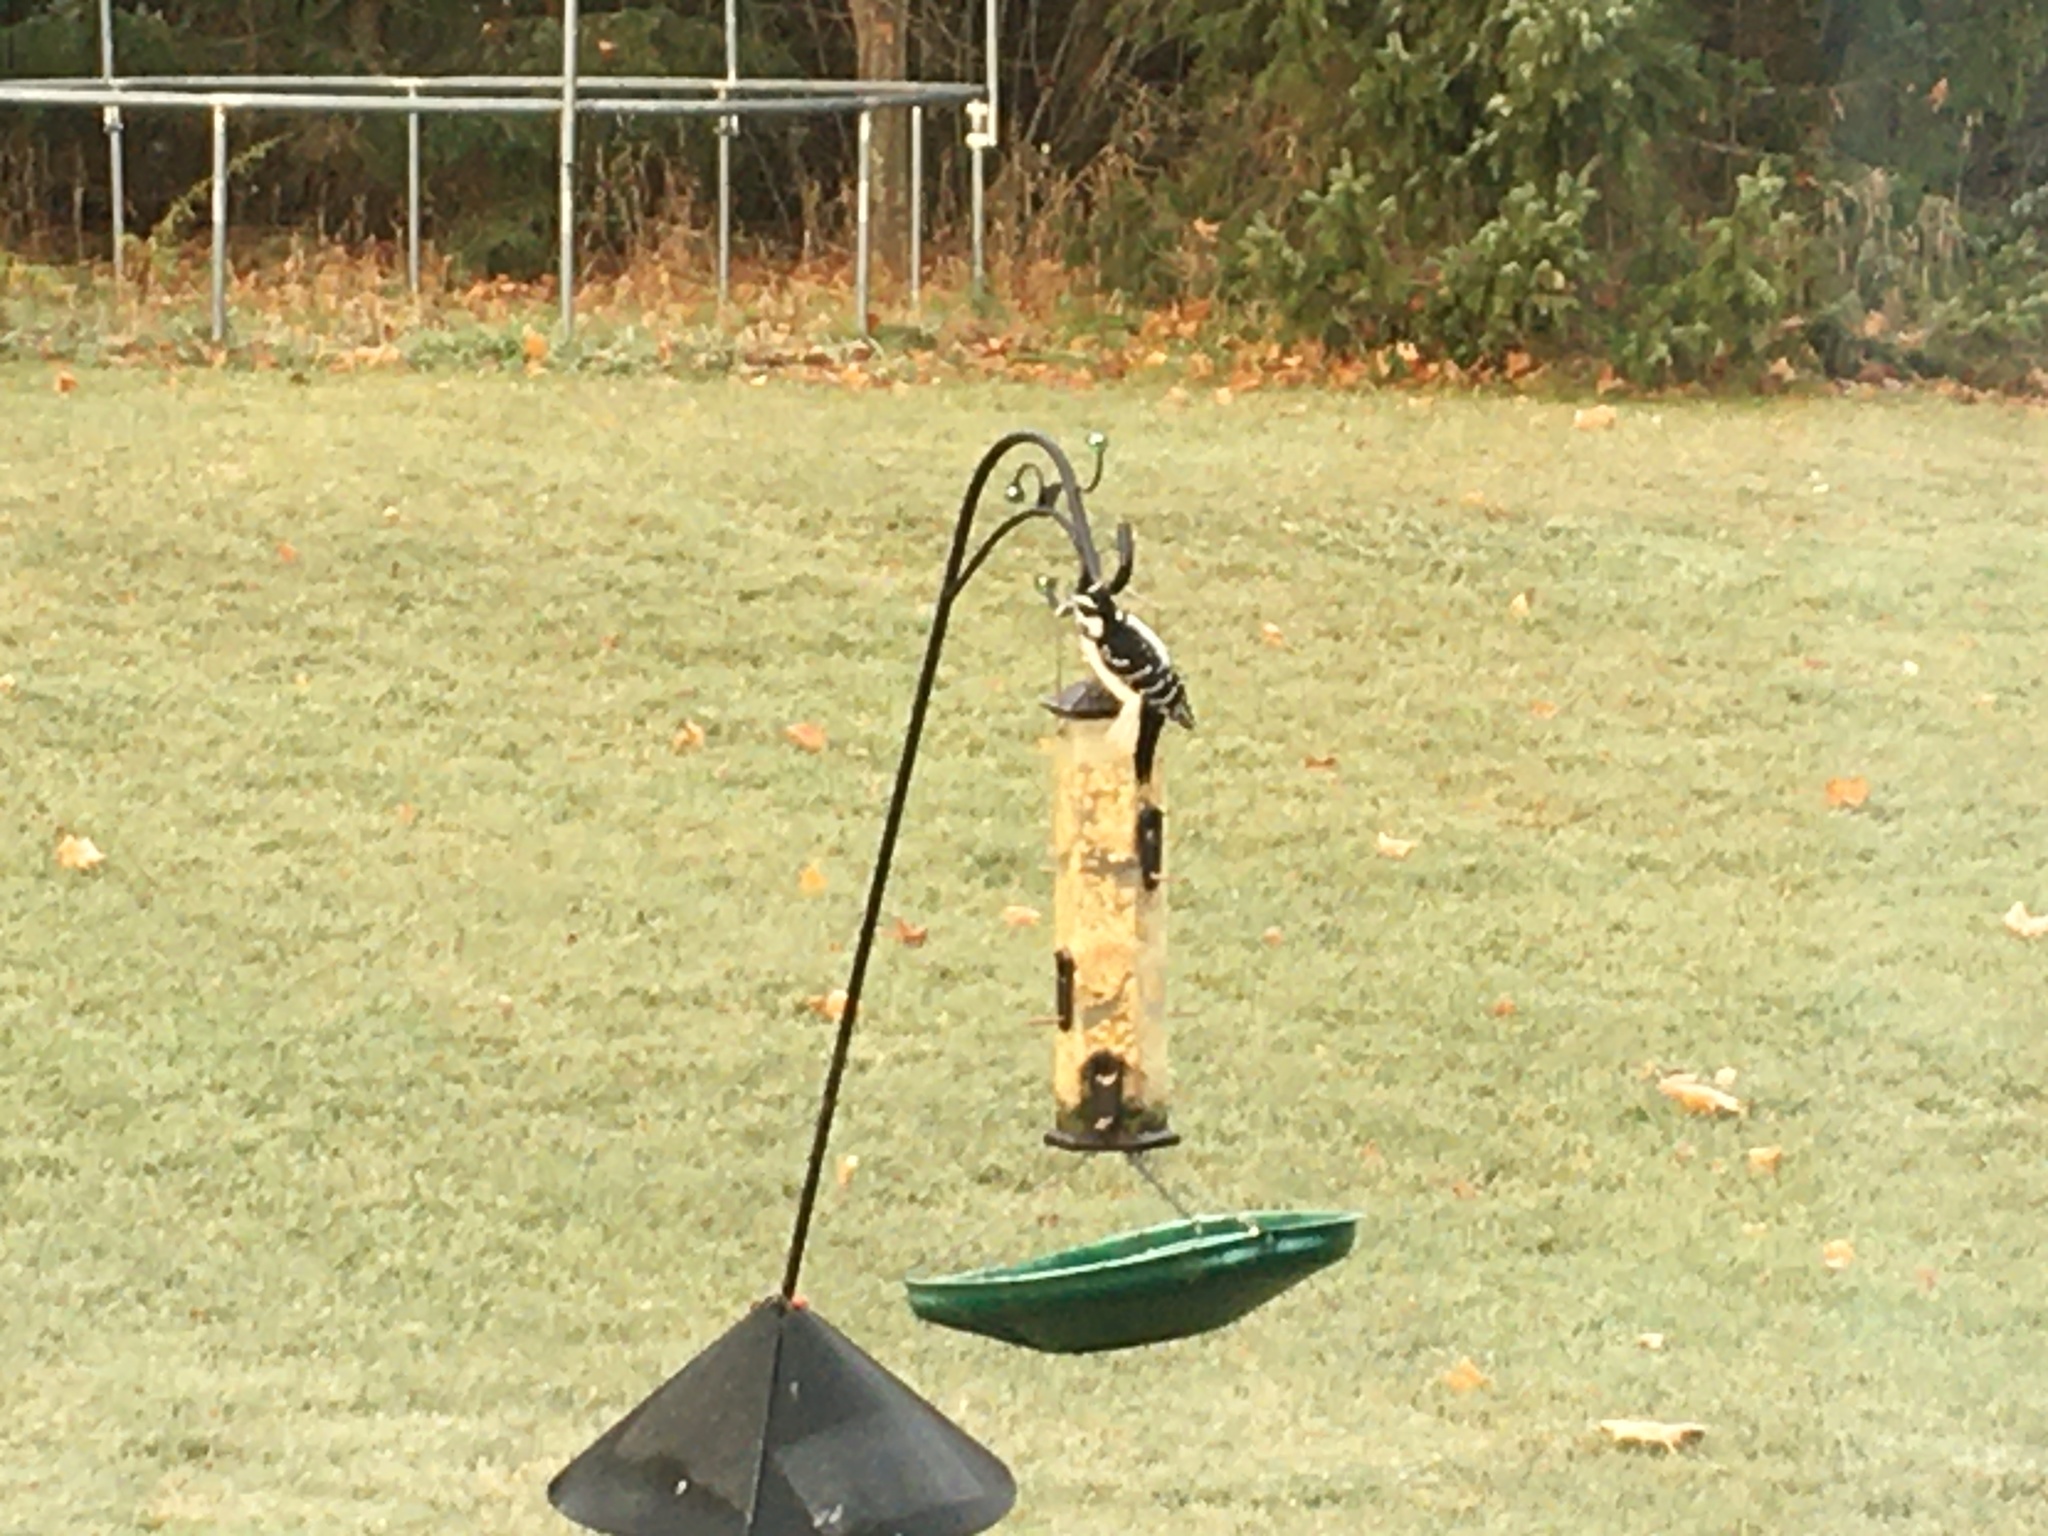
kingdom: Animalia
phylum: Chordata
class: Aves
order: Piciformes
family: Picidae
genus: Dryobates
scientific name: Dryobates pubescens
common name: Downy woodpecker
